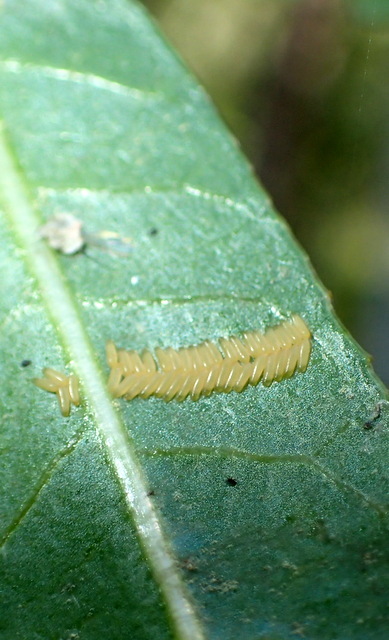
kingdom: Animalia
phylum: Arthropoda
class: Insecta
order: Coleoptera
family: Chrysomelidae
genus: Agasicles
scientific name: Agasicles hygrophila
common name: Alligatorweed flea beetle
